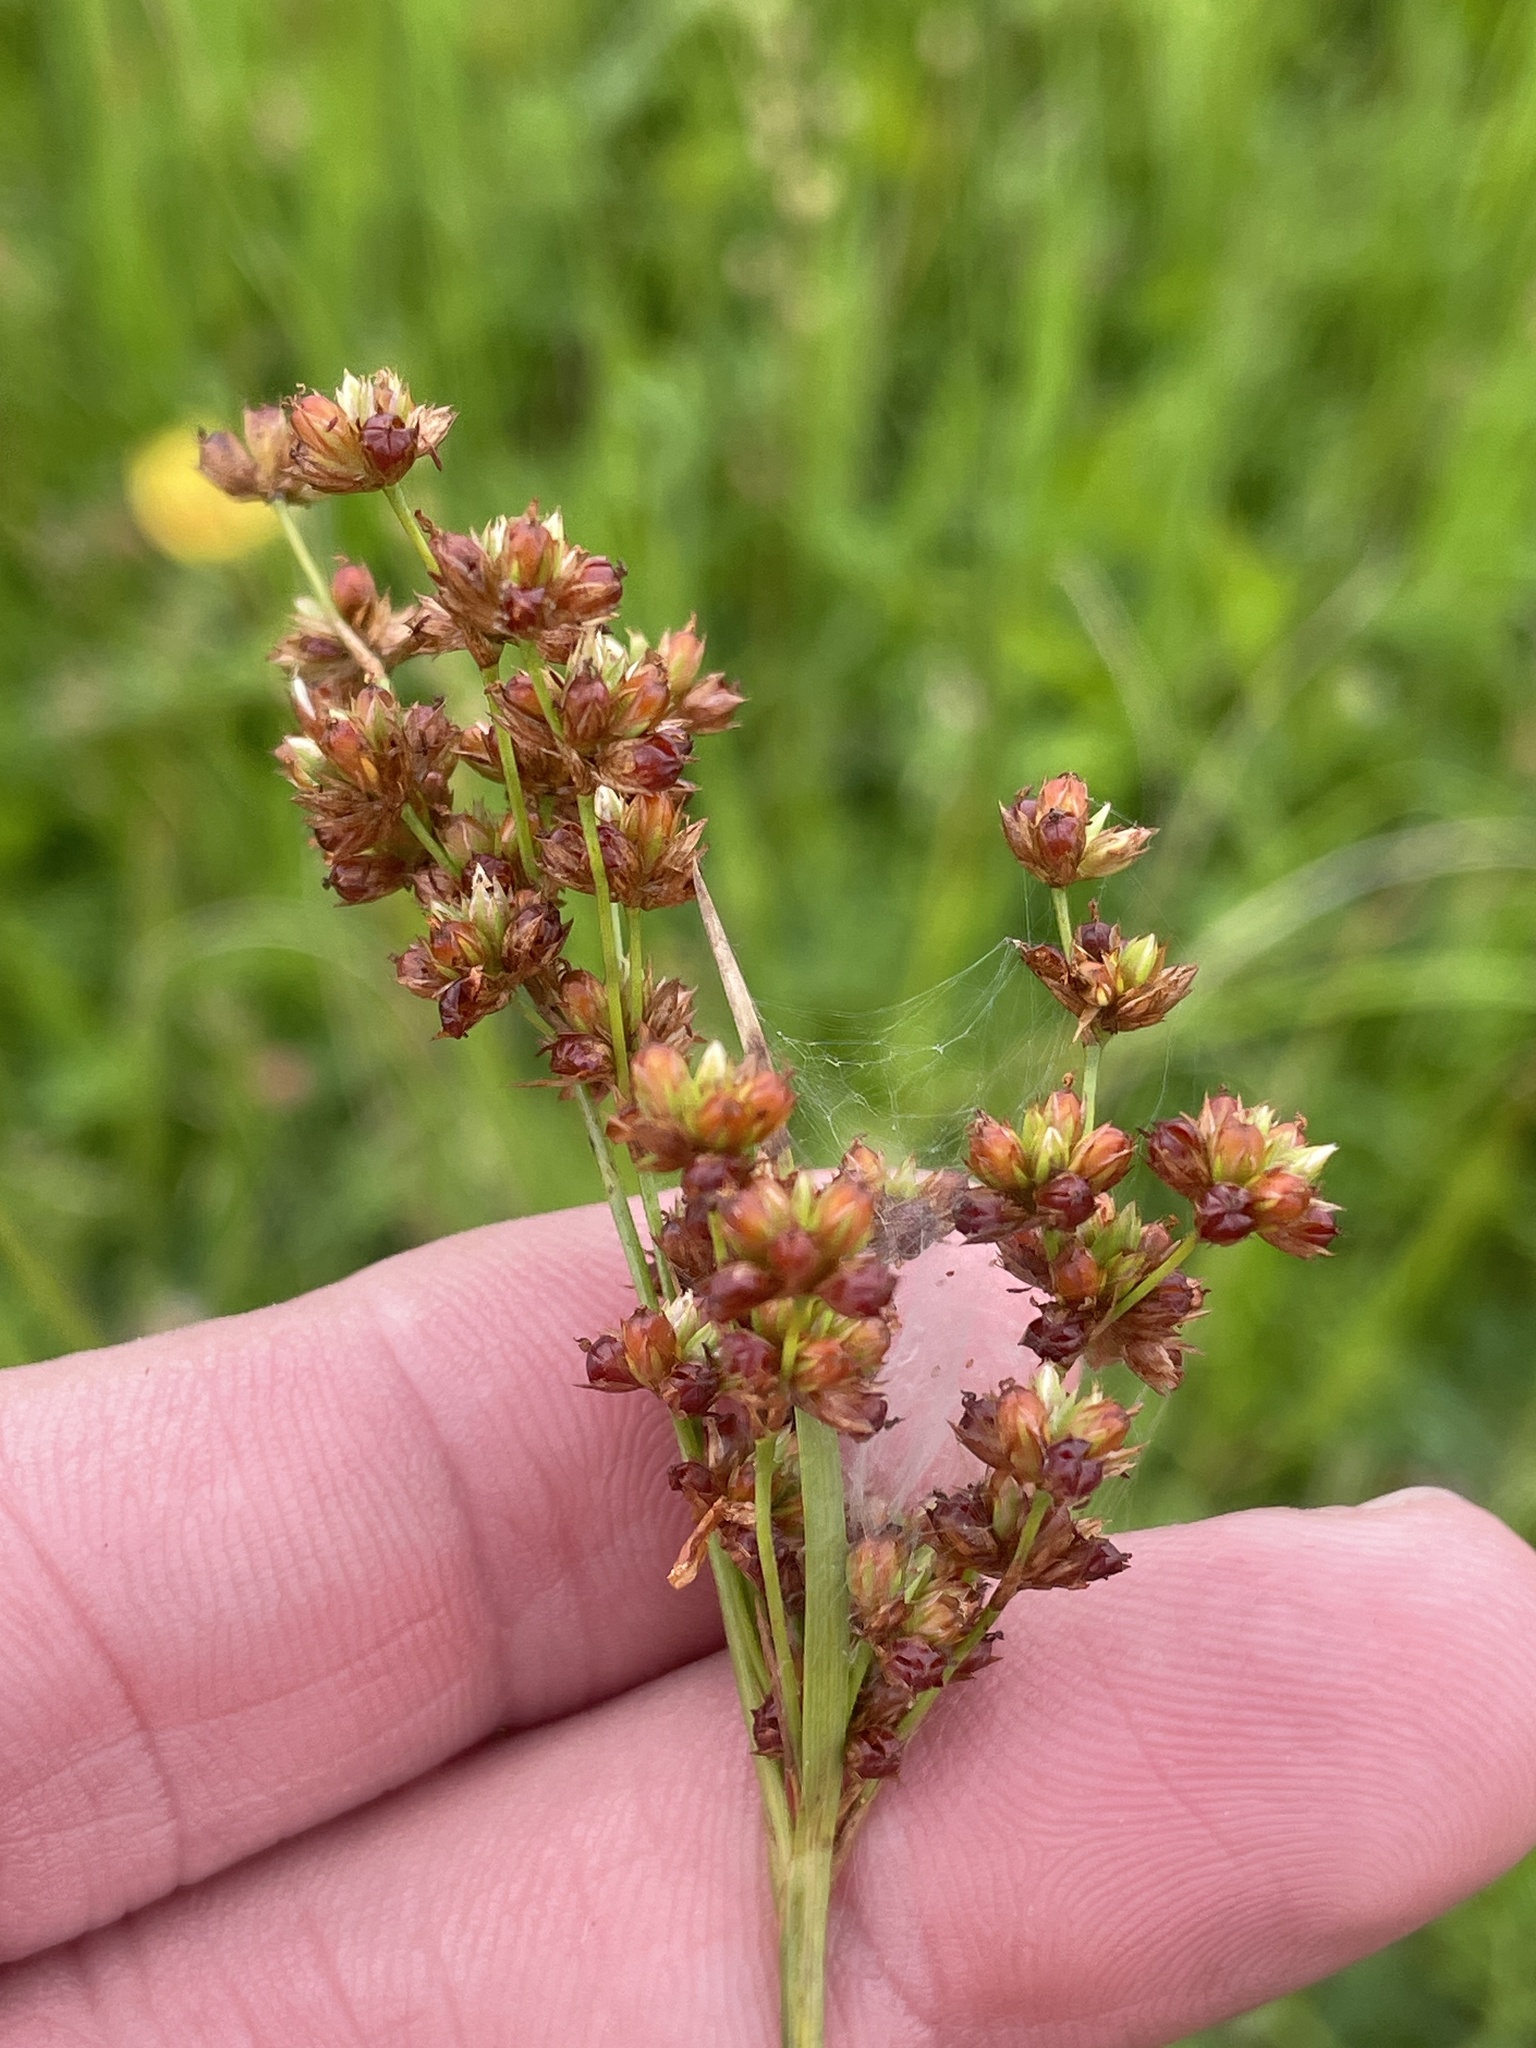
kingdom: Plantae
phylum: Tracheophyta
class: Liliopsida
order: Poales
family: Juncaceae
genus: Juncus
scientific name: Juncus marginatus
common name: Grass-leaf rush
